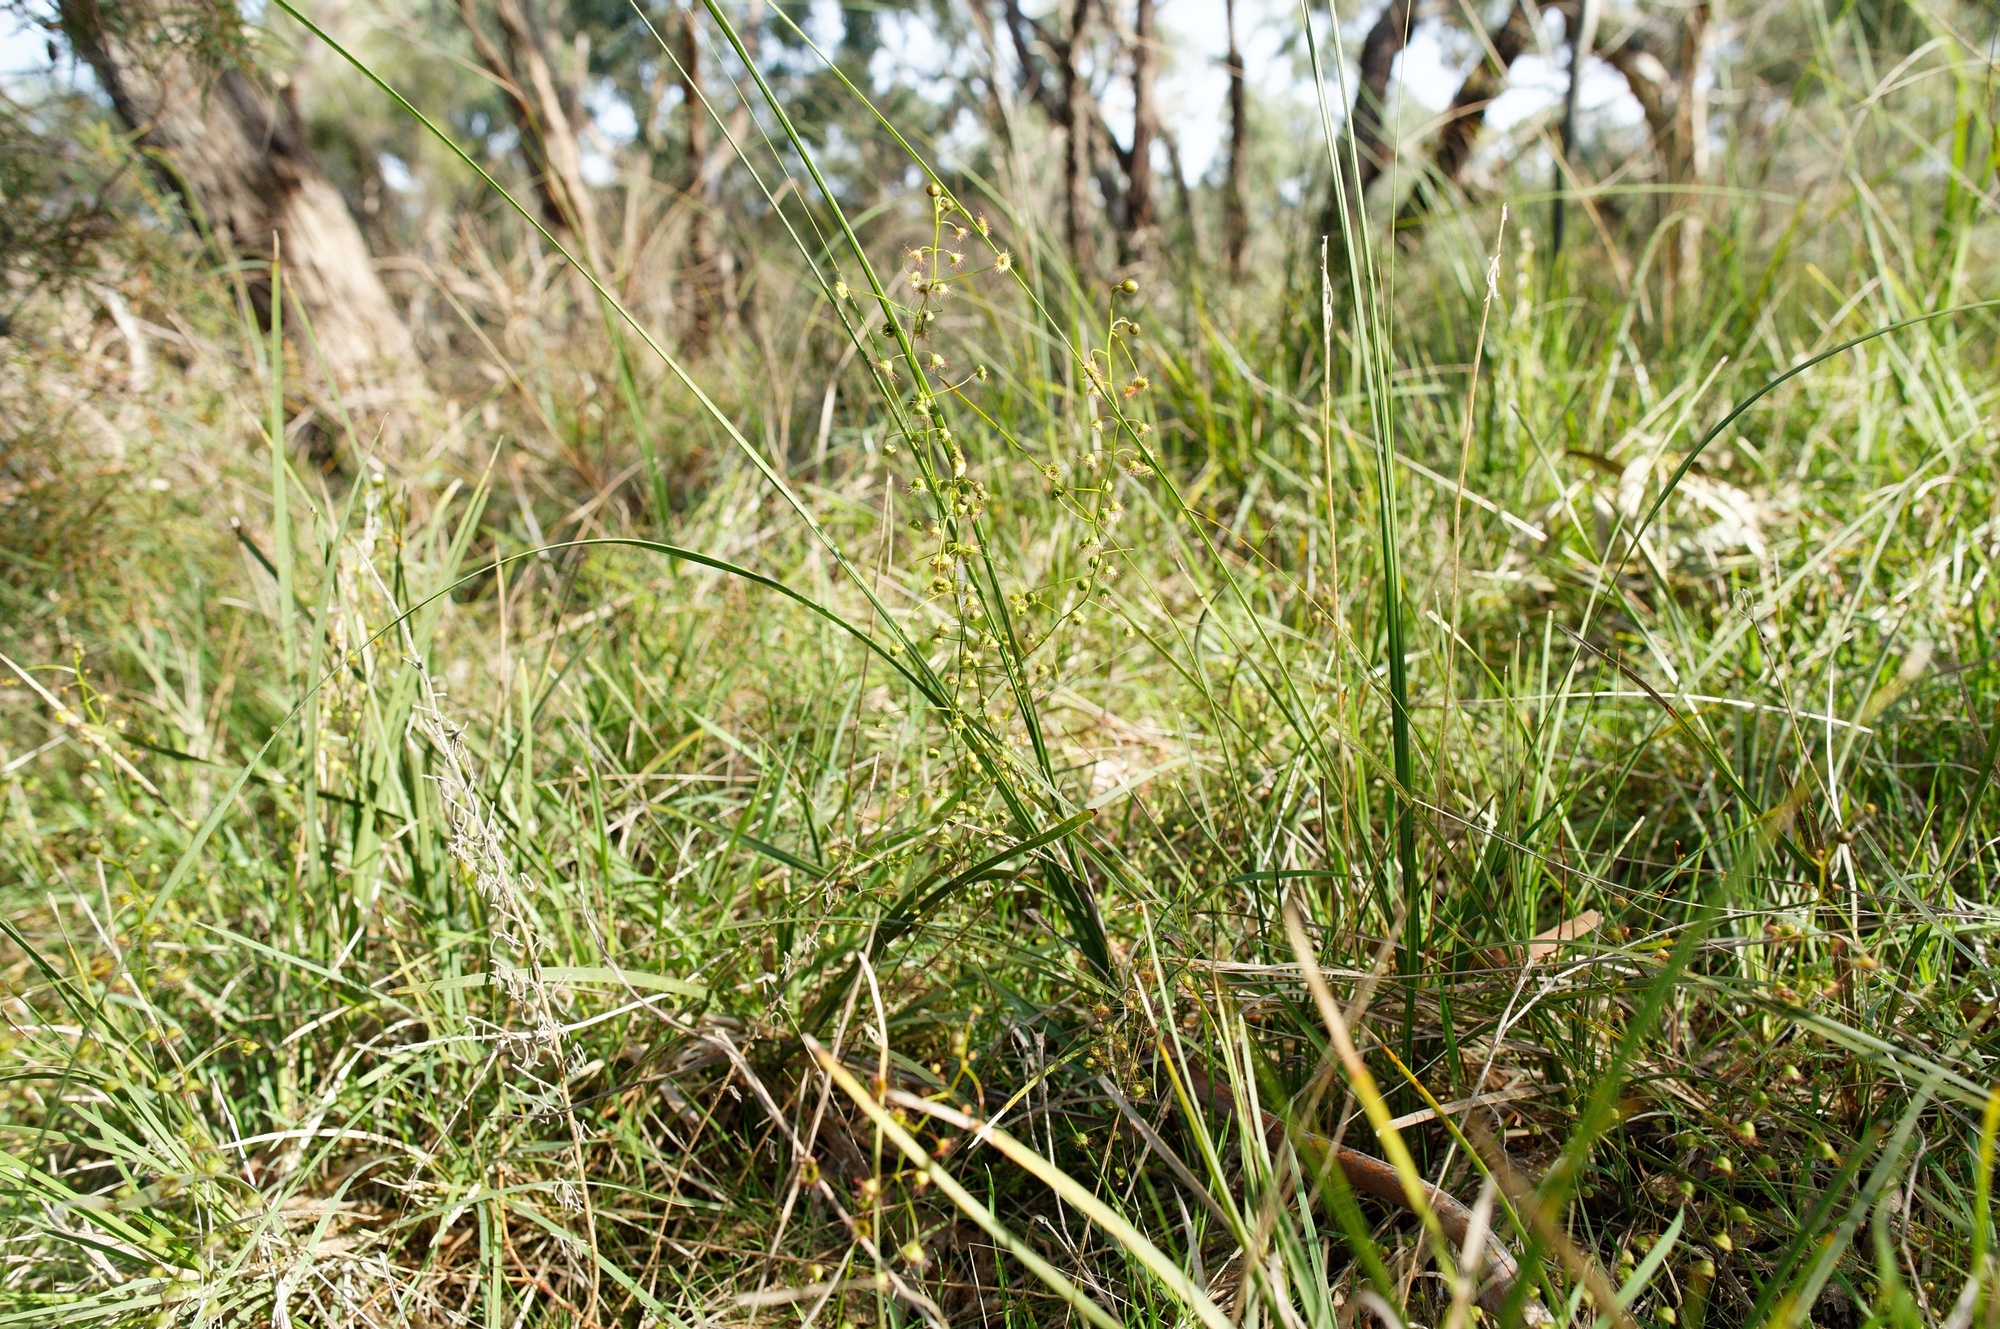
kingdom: Plantae
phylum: Tracheophyta
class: Magnoliopsida
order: Caryophyllales
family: Droseraceae
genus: Drosera
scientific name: Drosera planchonii
